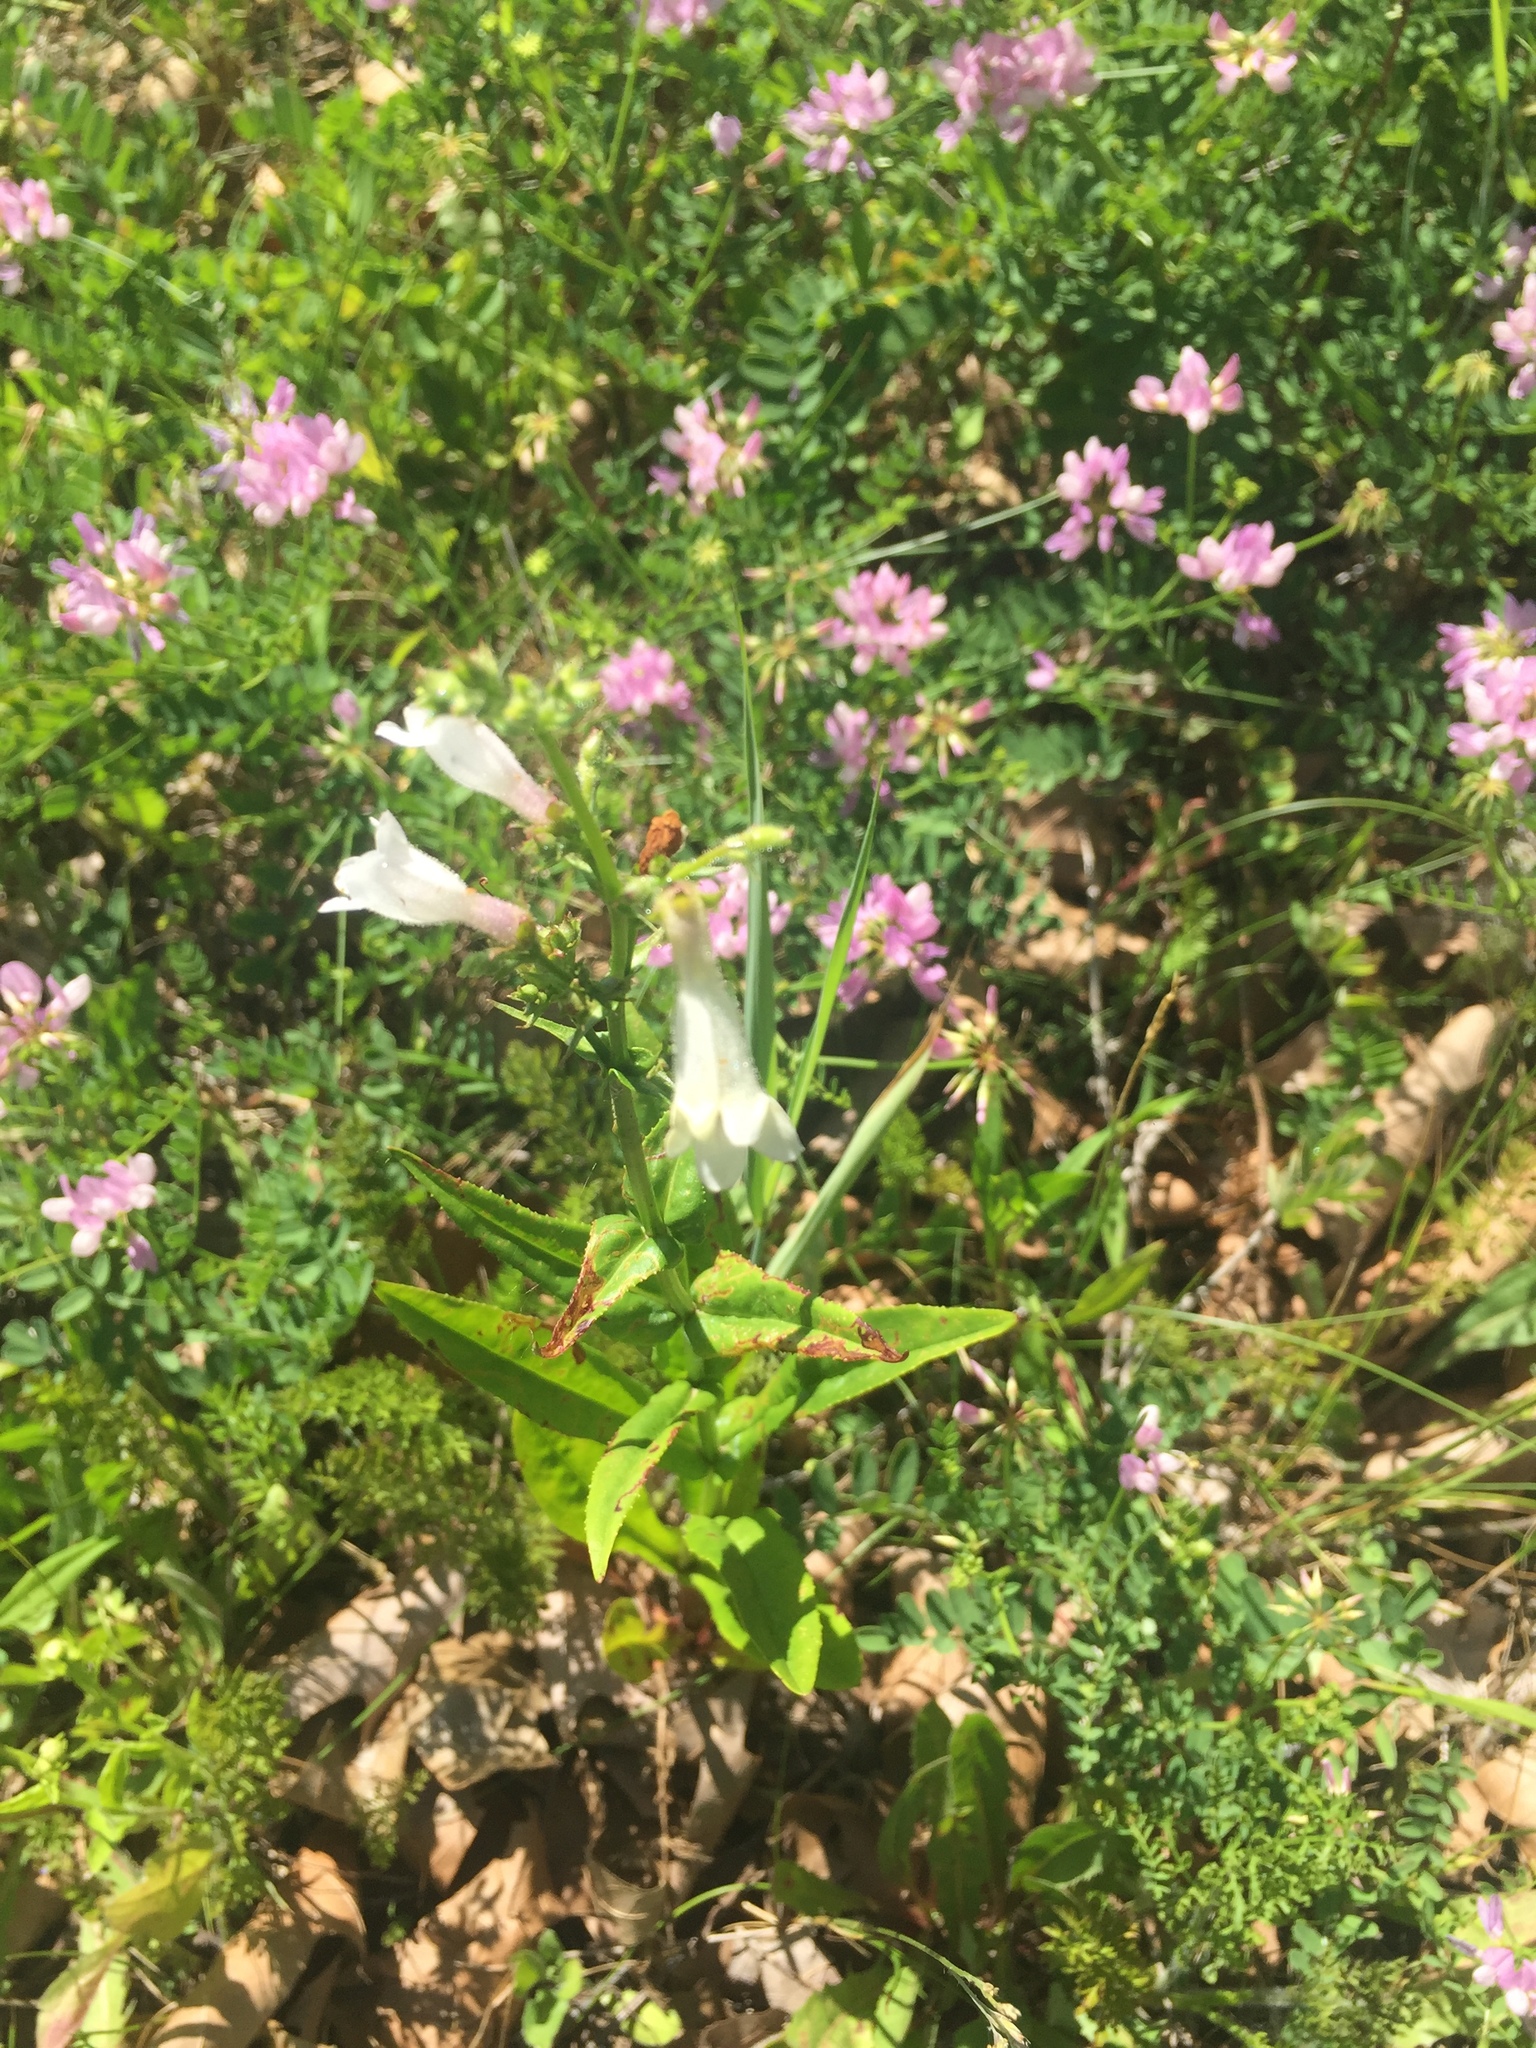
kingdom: Plantae
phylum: Tracheophyta
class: Magnoliopsida
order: Lamiales
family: Plantaginaceae
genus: Penstemon
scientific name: Penstemon digitalis
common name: Foxglove beardtongue
